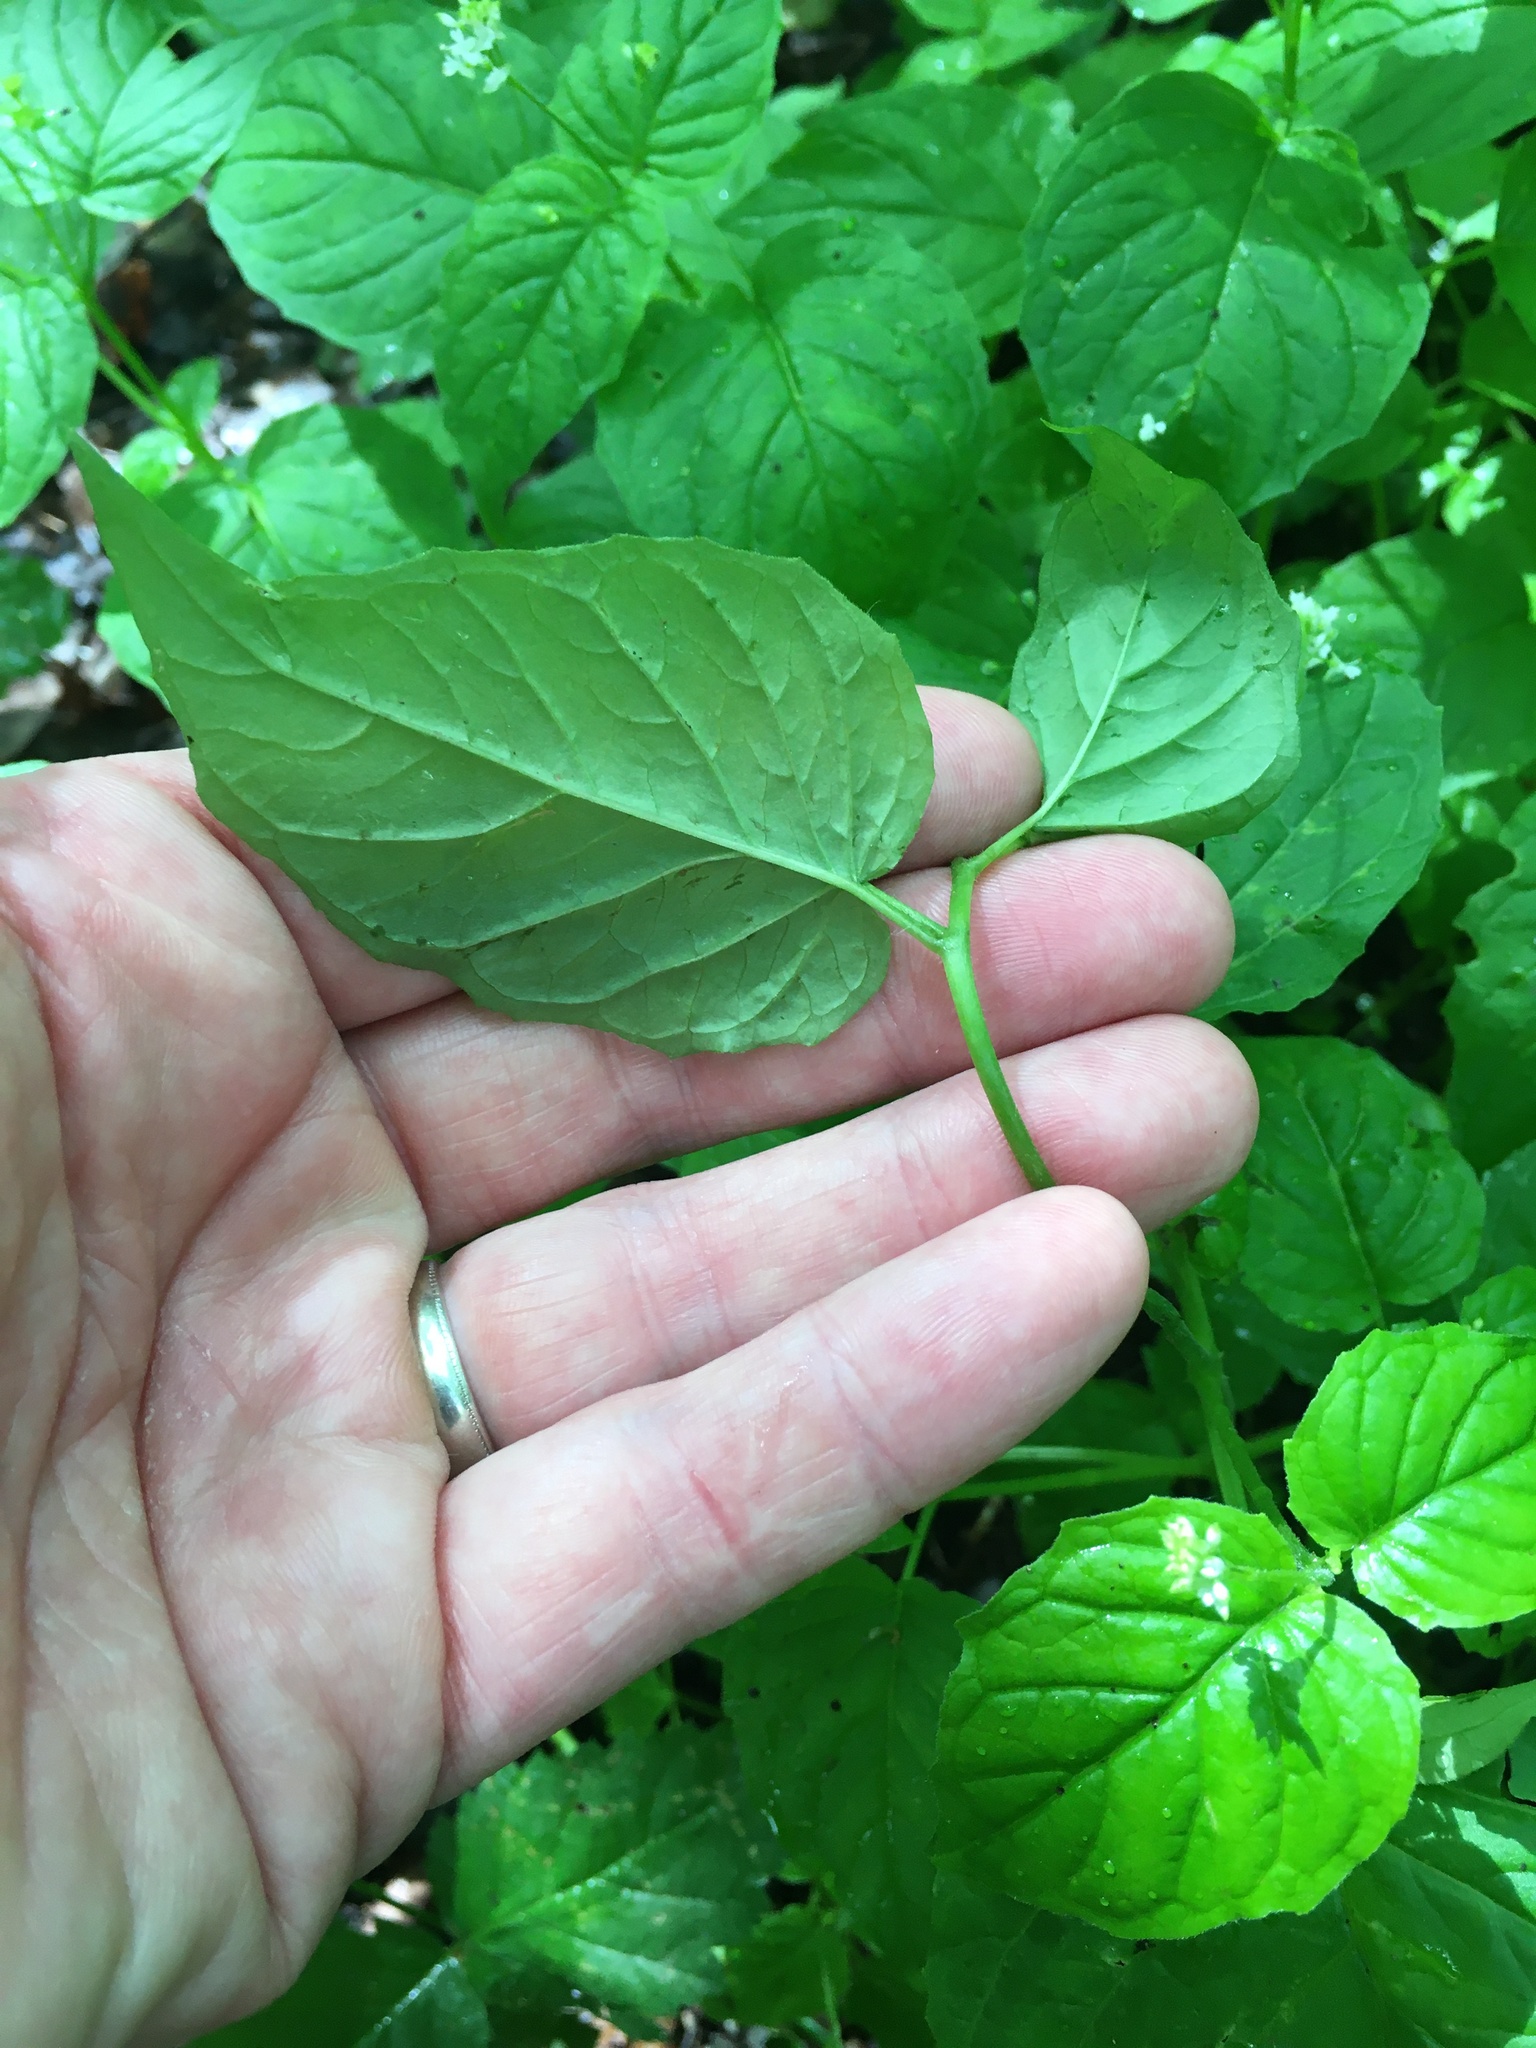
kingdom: Plantae
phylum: Tracheophyta
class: Magnoliopsida
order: Myrtales
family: Onagraceae
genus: Circaea
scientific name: Circaea alpina
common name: Alpine enchanter's-nightshade
